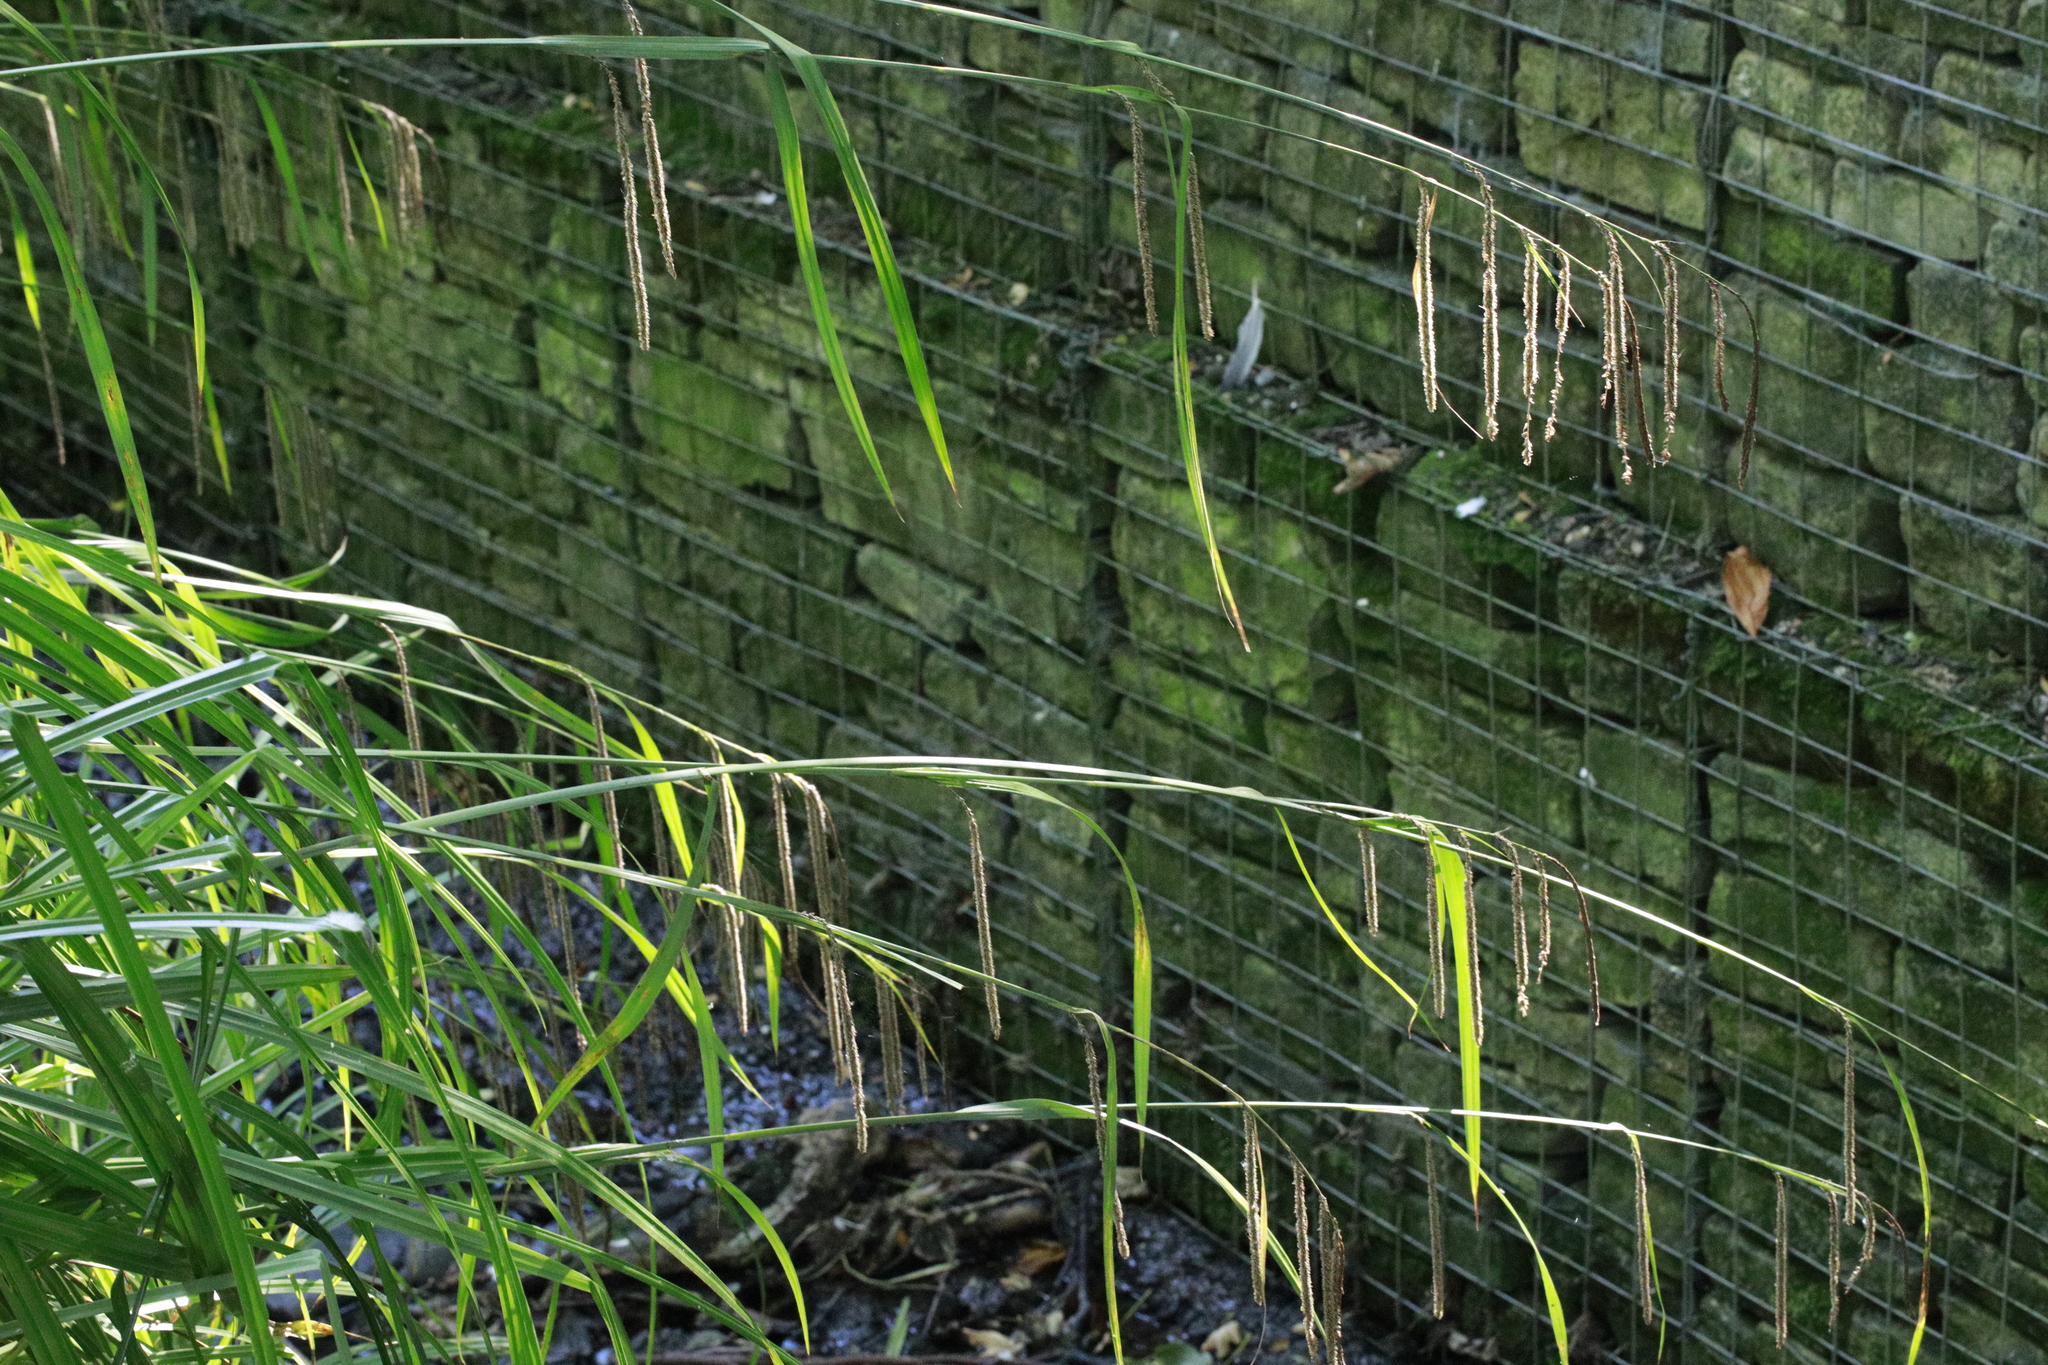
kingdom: Plantae
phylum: Tracheophyta
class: Liliopsida
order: Poales
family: Cyperaceae
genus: Carex
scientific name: Carex pendula
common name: Pendulous sedge
